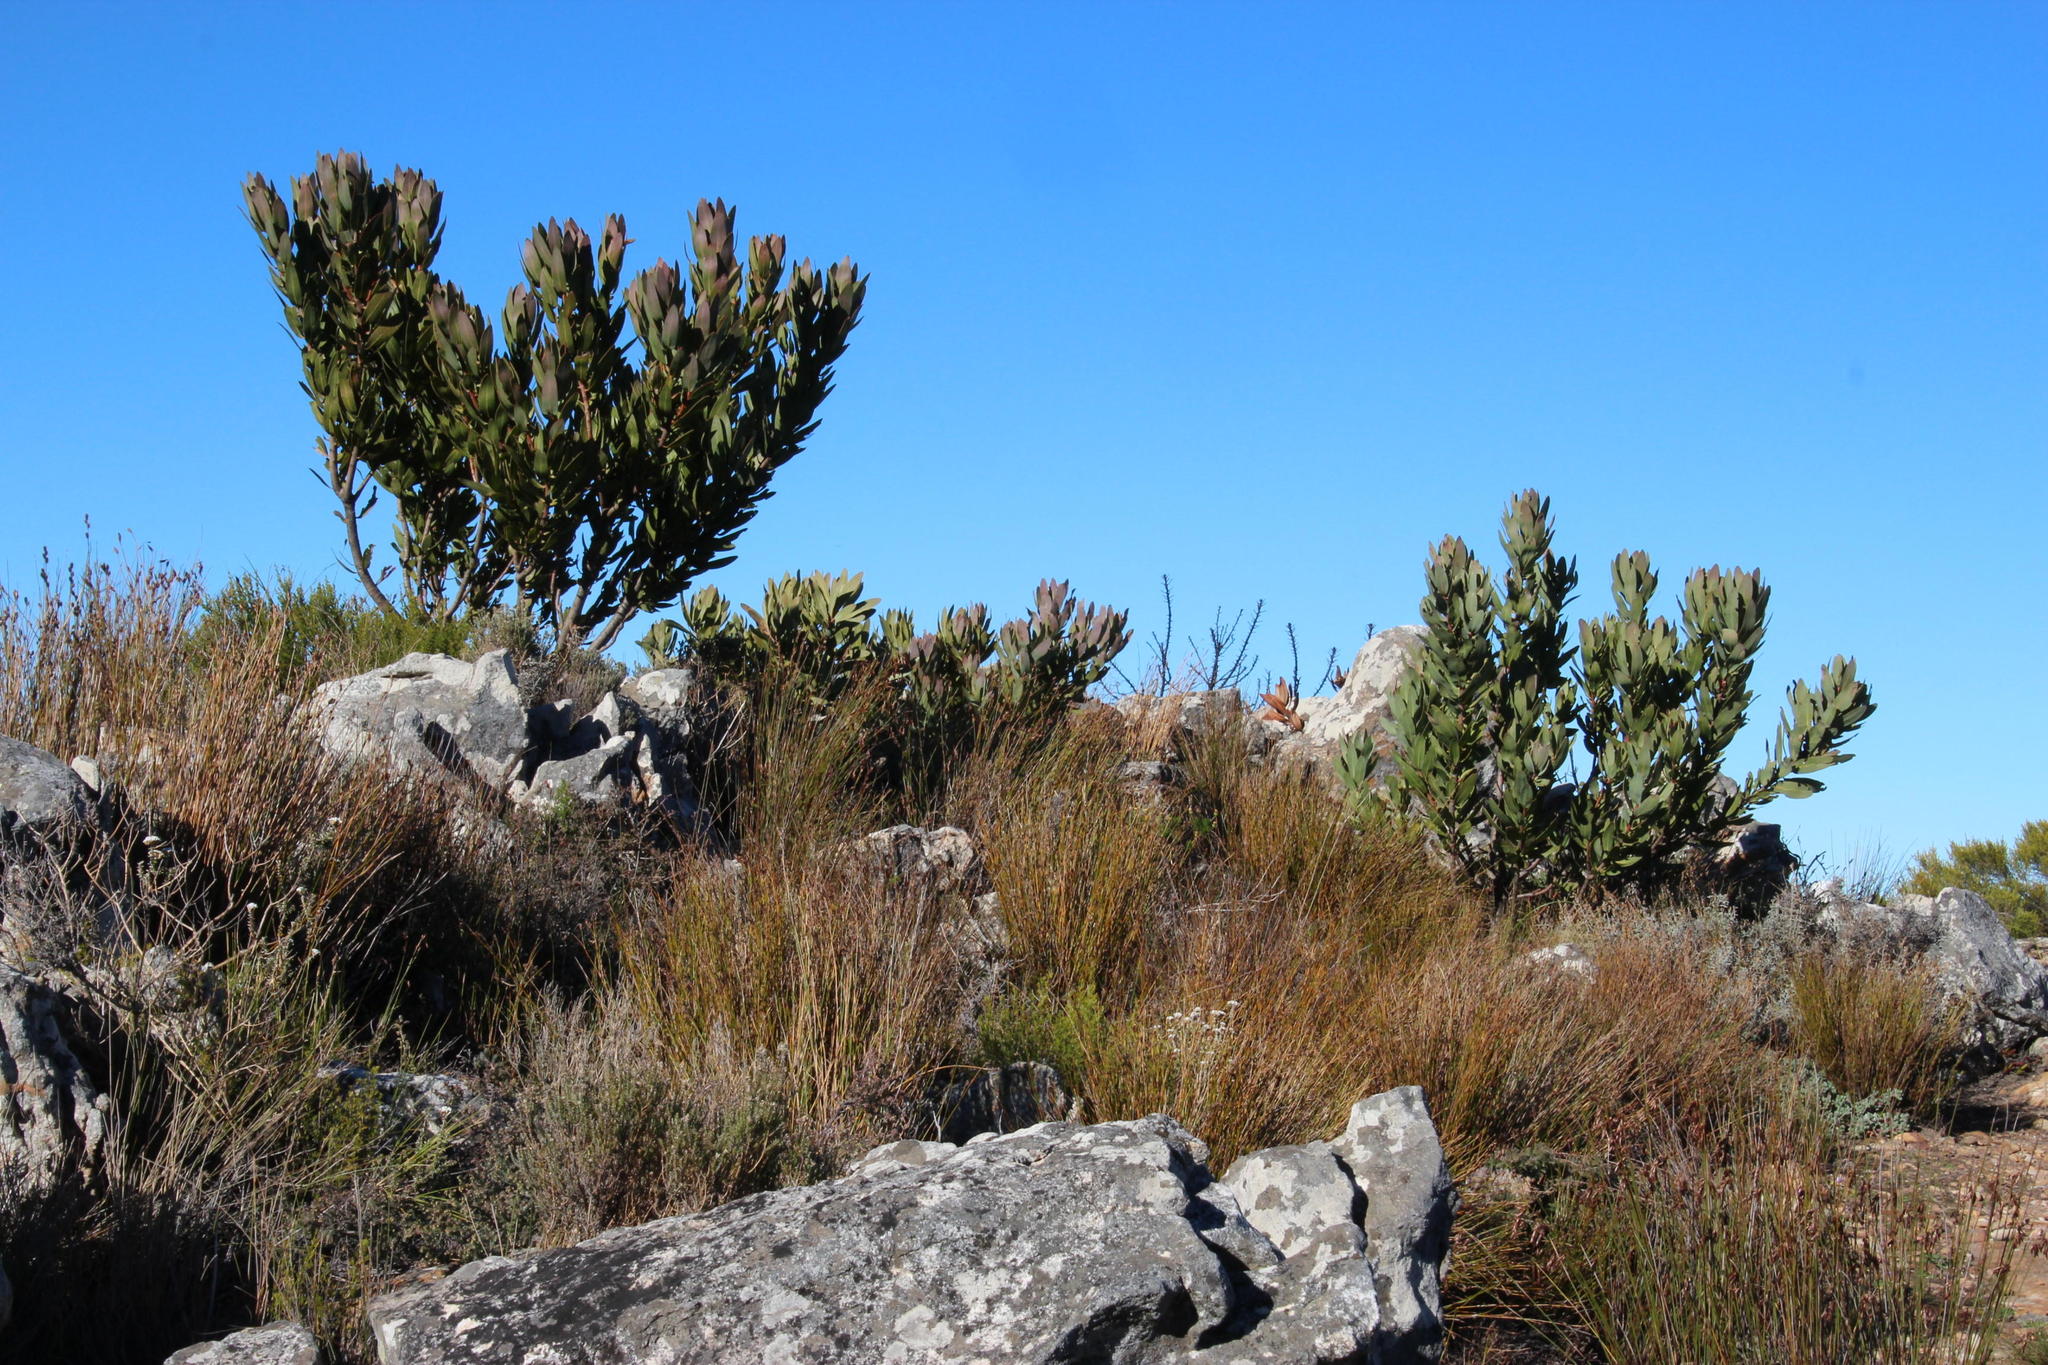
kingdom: Plantae
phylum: Tracheophyta
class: Magnoliopsida
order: Proteales
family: Proteaceae
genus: Protea
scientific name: Protea laurifolia
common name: Grey-leaf sugarbsh
